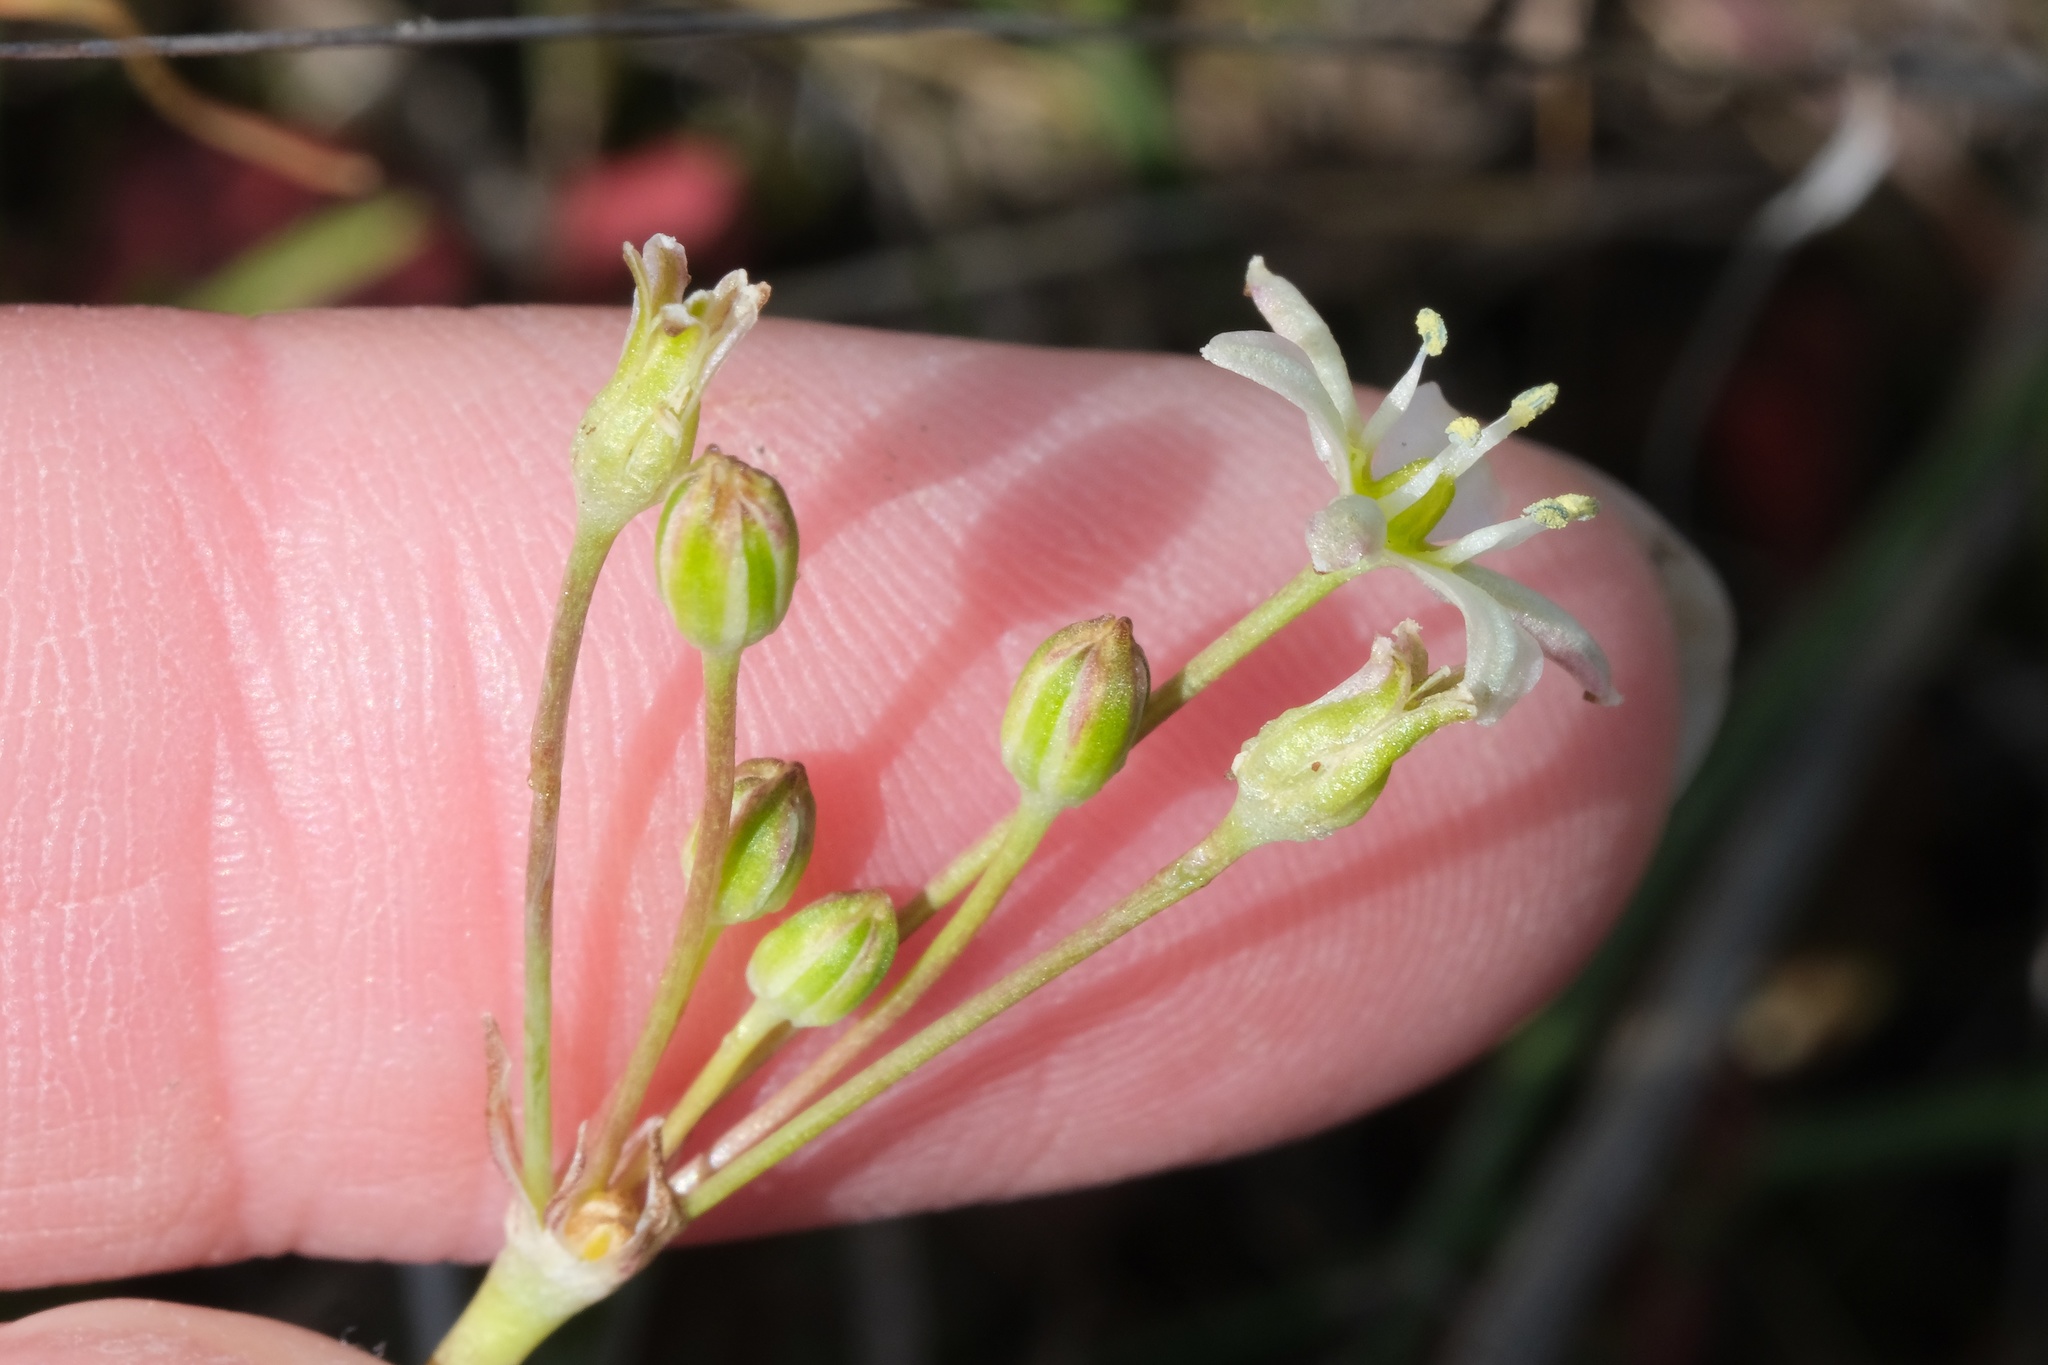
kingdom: Plantae
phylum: Tracheophyta
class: Liliopsida
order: Asparagales
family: Asparagaceae
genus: Muilla
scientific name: Muilla maritima
